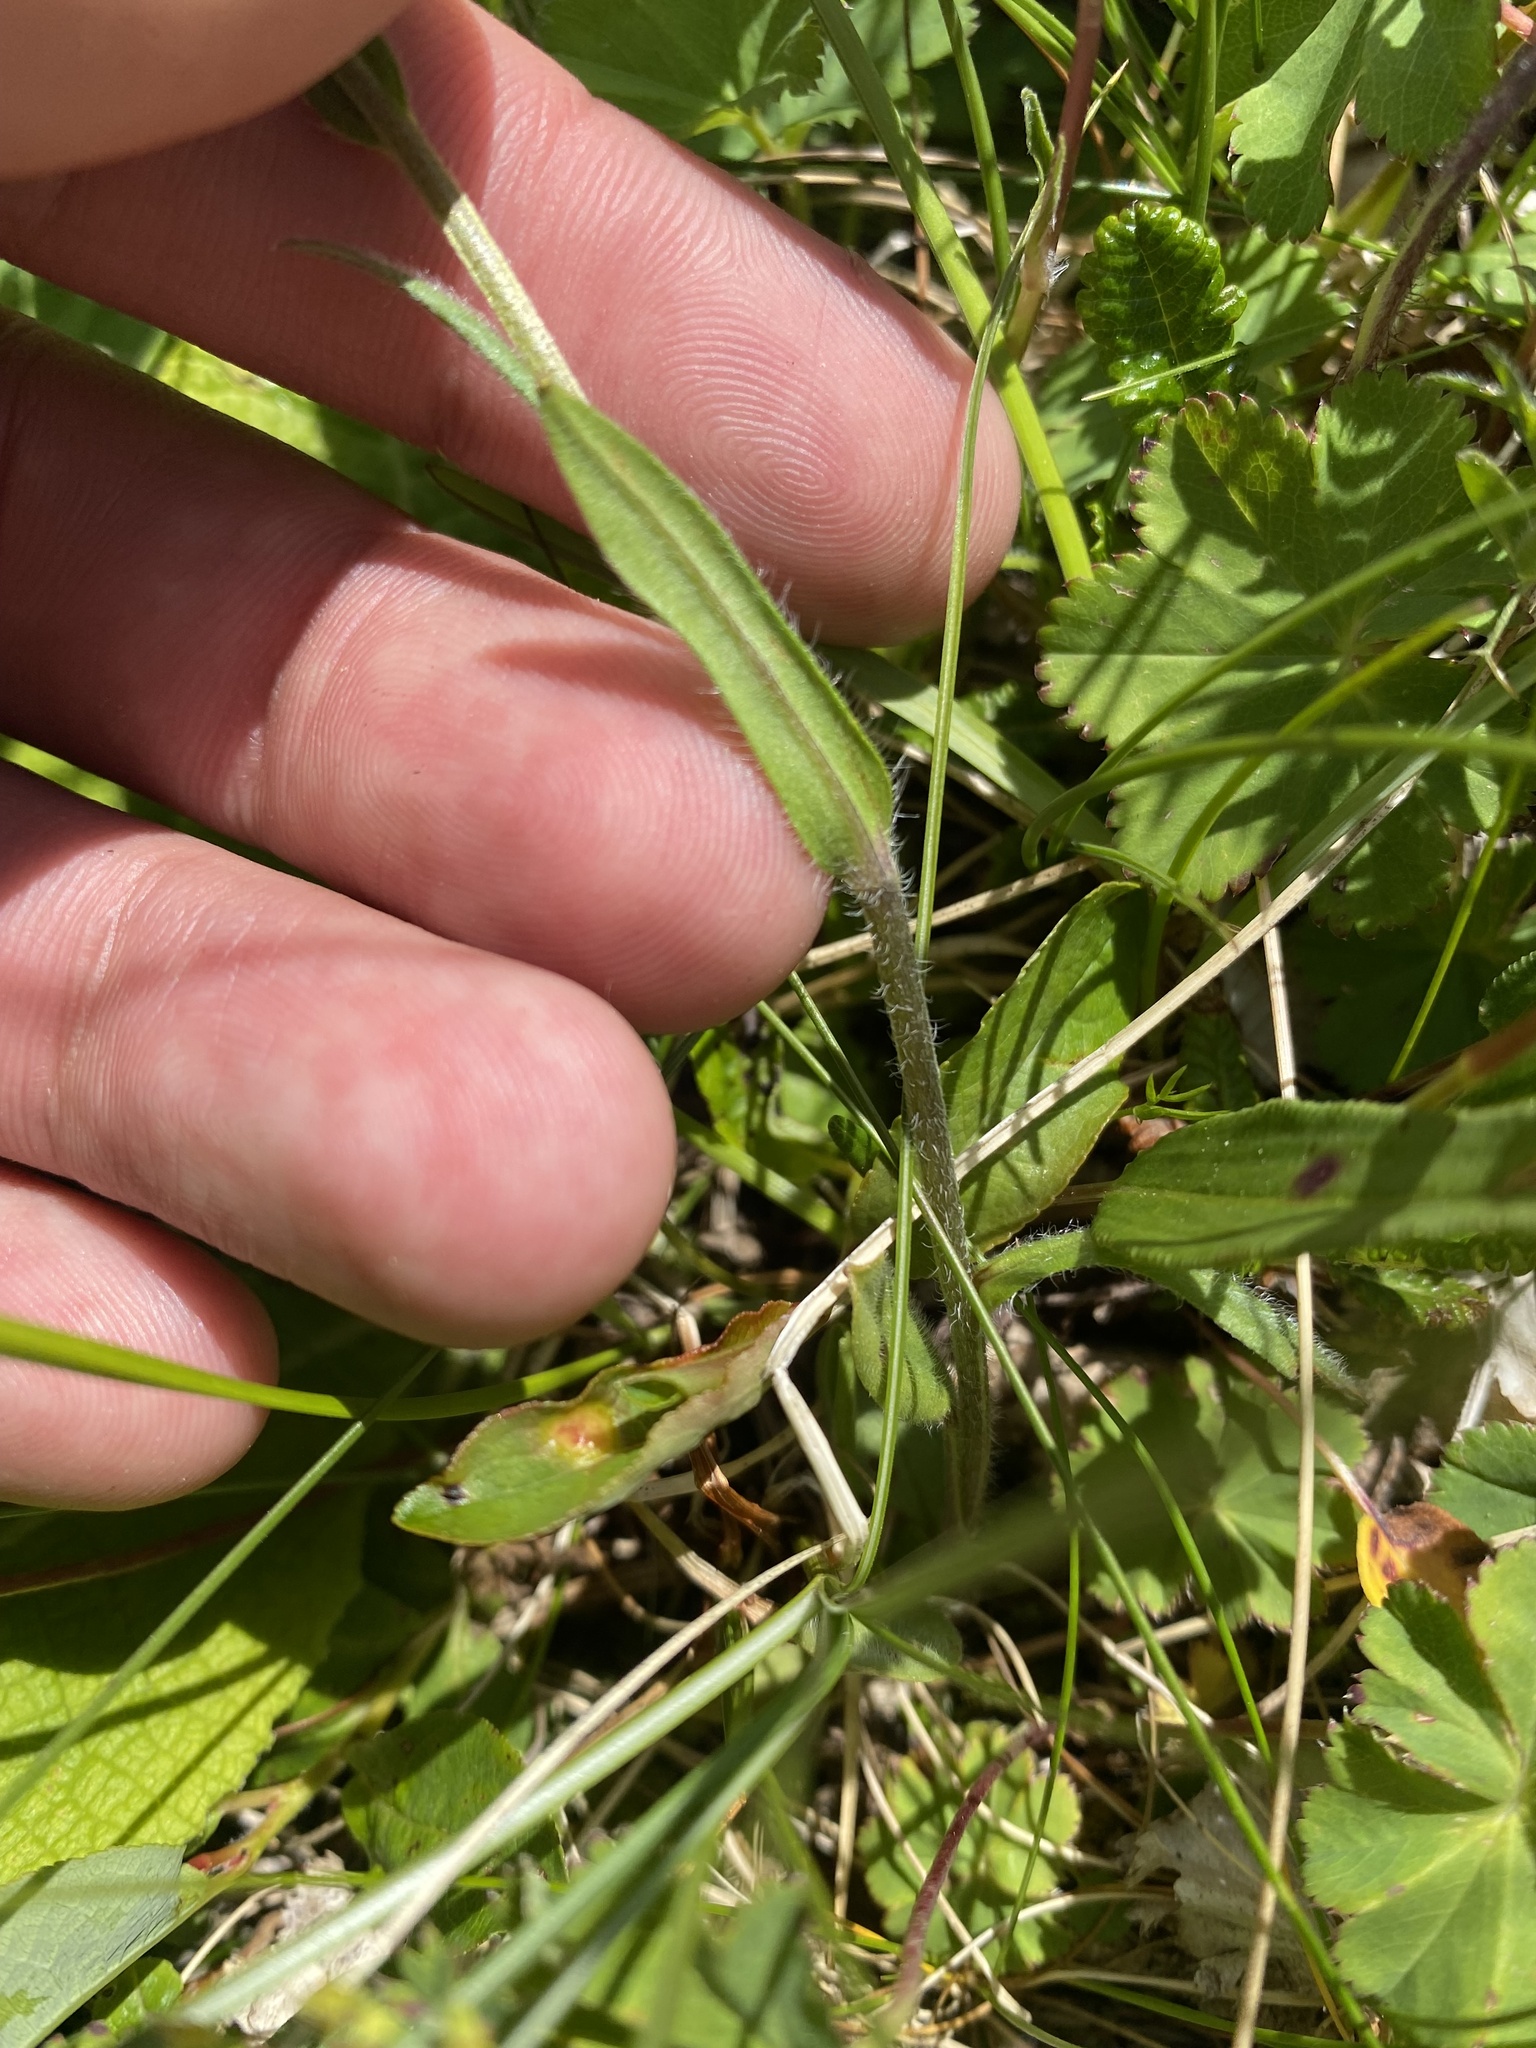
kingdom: Plantae
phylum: Tracheophyta
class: Magnoliopsida
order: Boraginales
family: Boraginaceae
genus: Myosotis
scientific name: Myosotis alpestris
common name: Alpine forget-me-not
